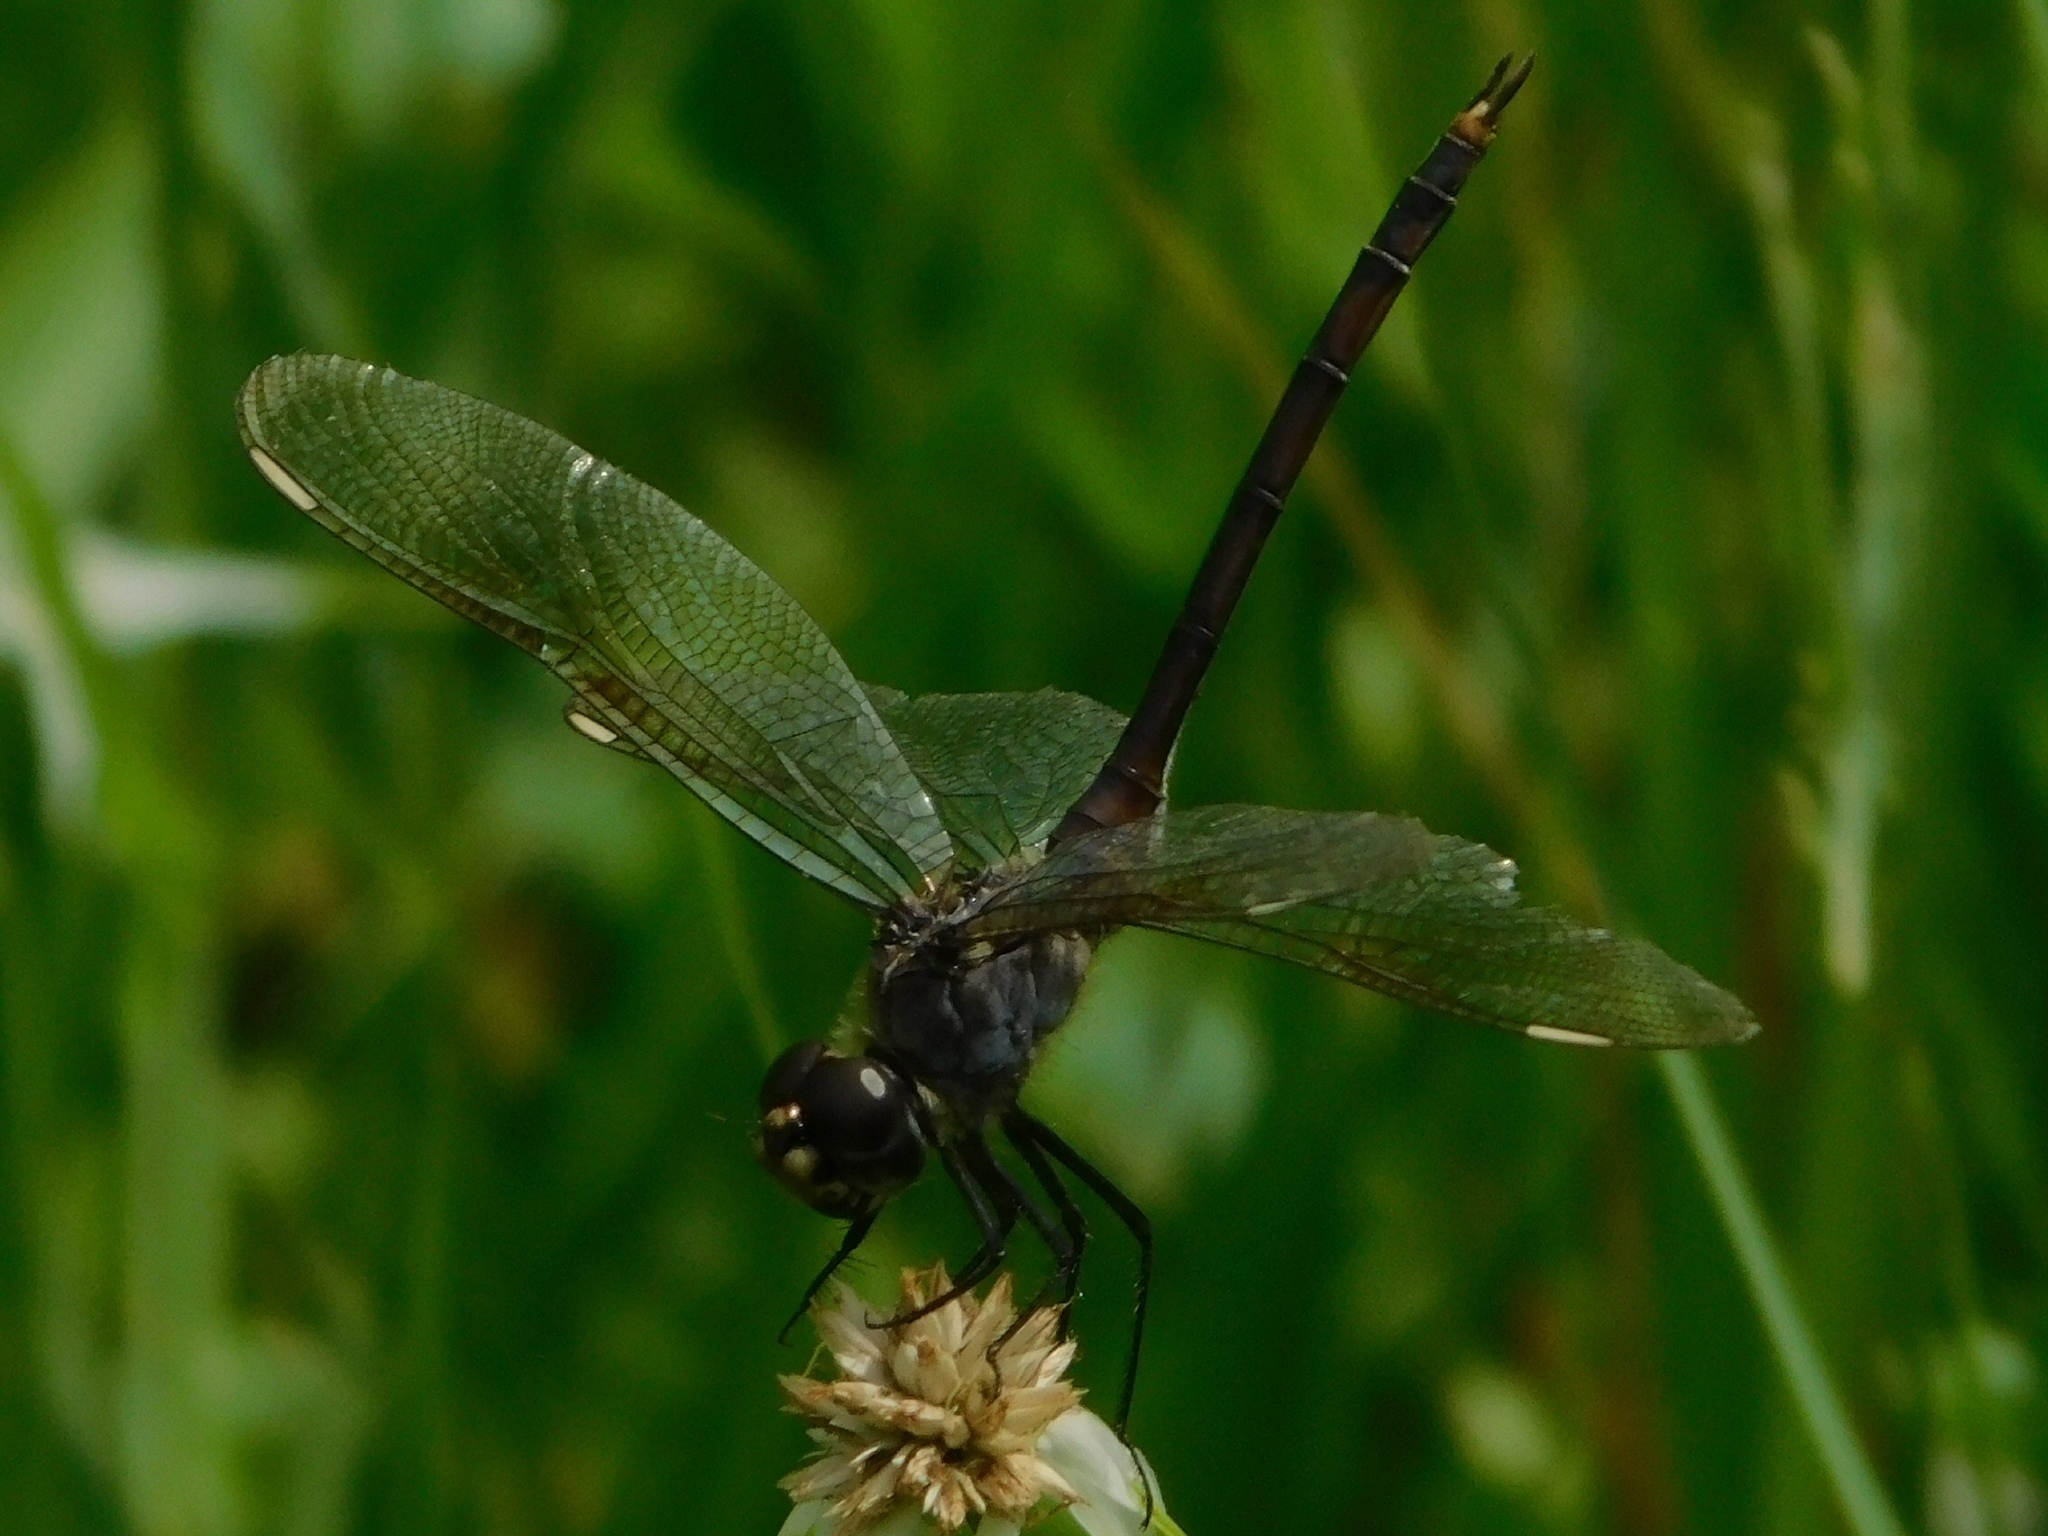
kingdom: Animalia
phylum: Arthropoda
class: Insecta
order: Odonata
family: Libellulidae
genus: Brachymesia
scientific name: Brachymesia gravida
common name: Four-spotted pennant
